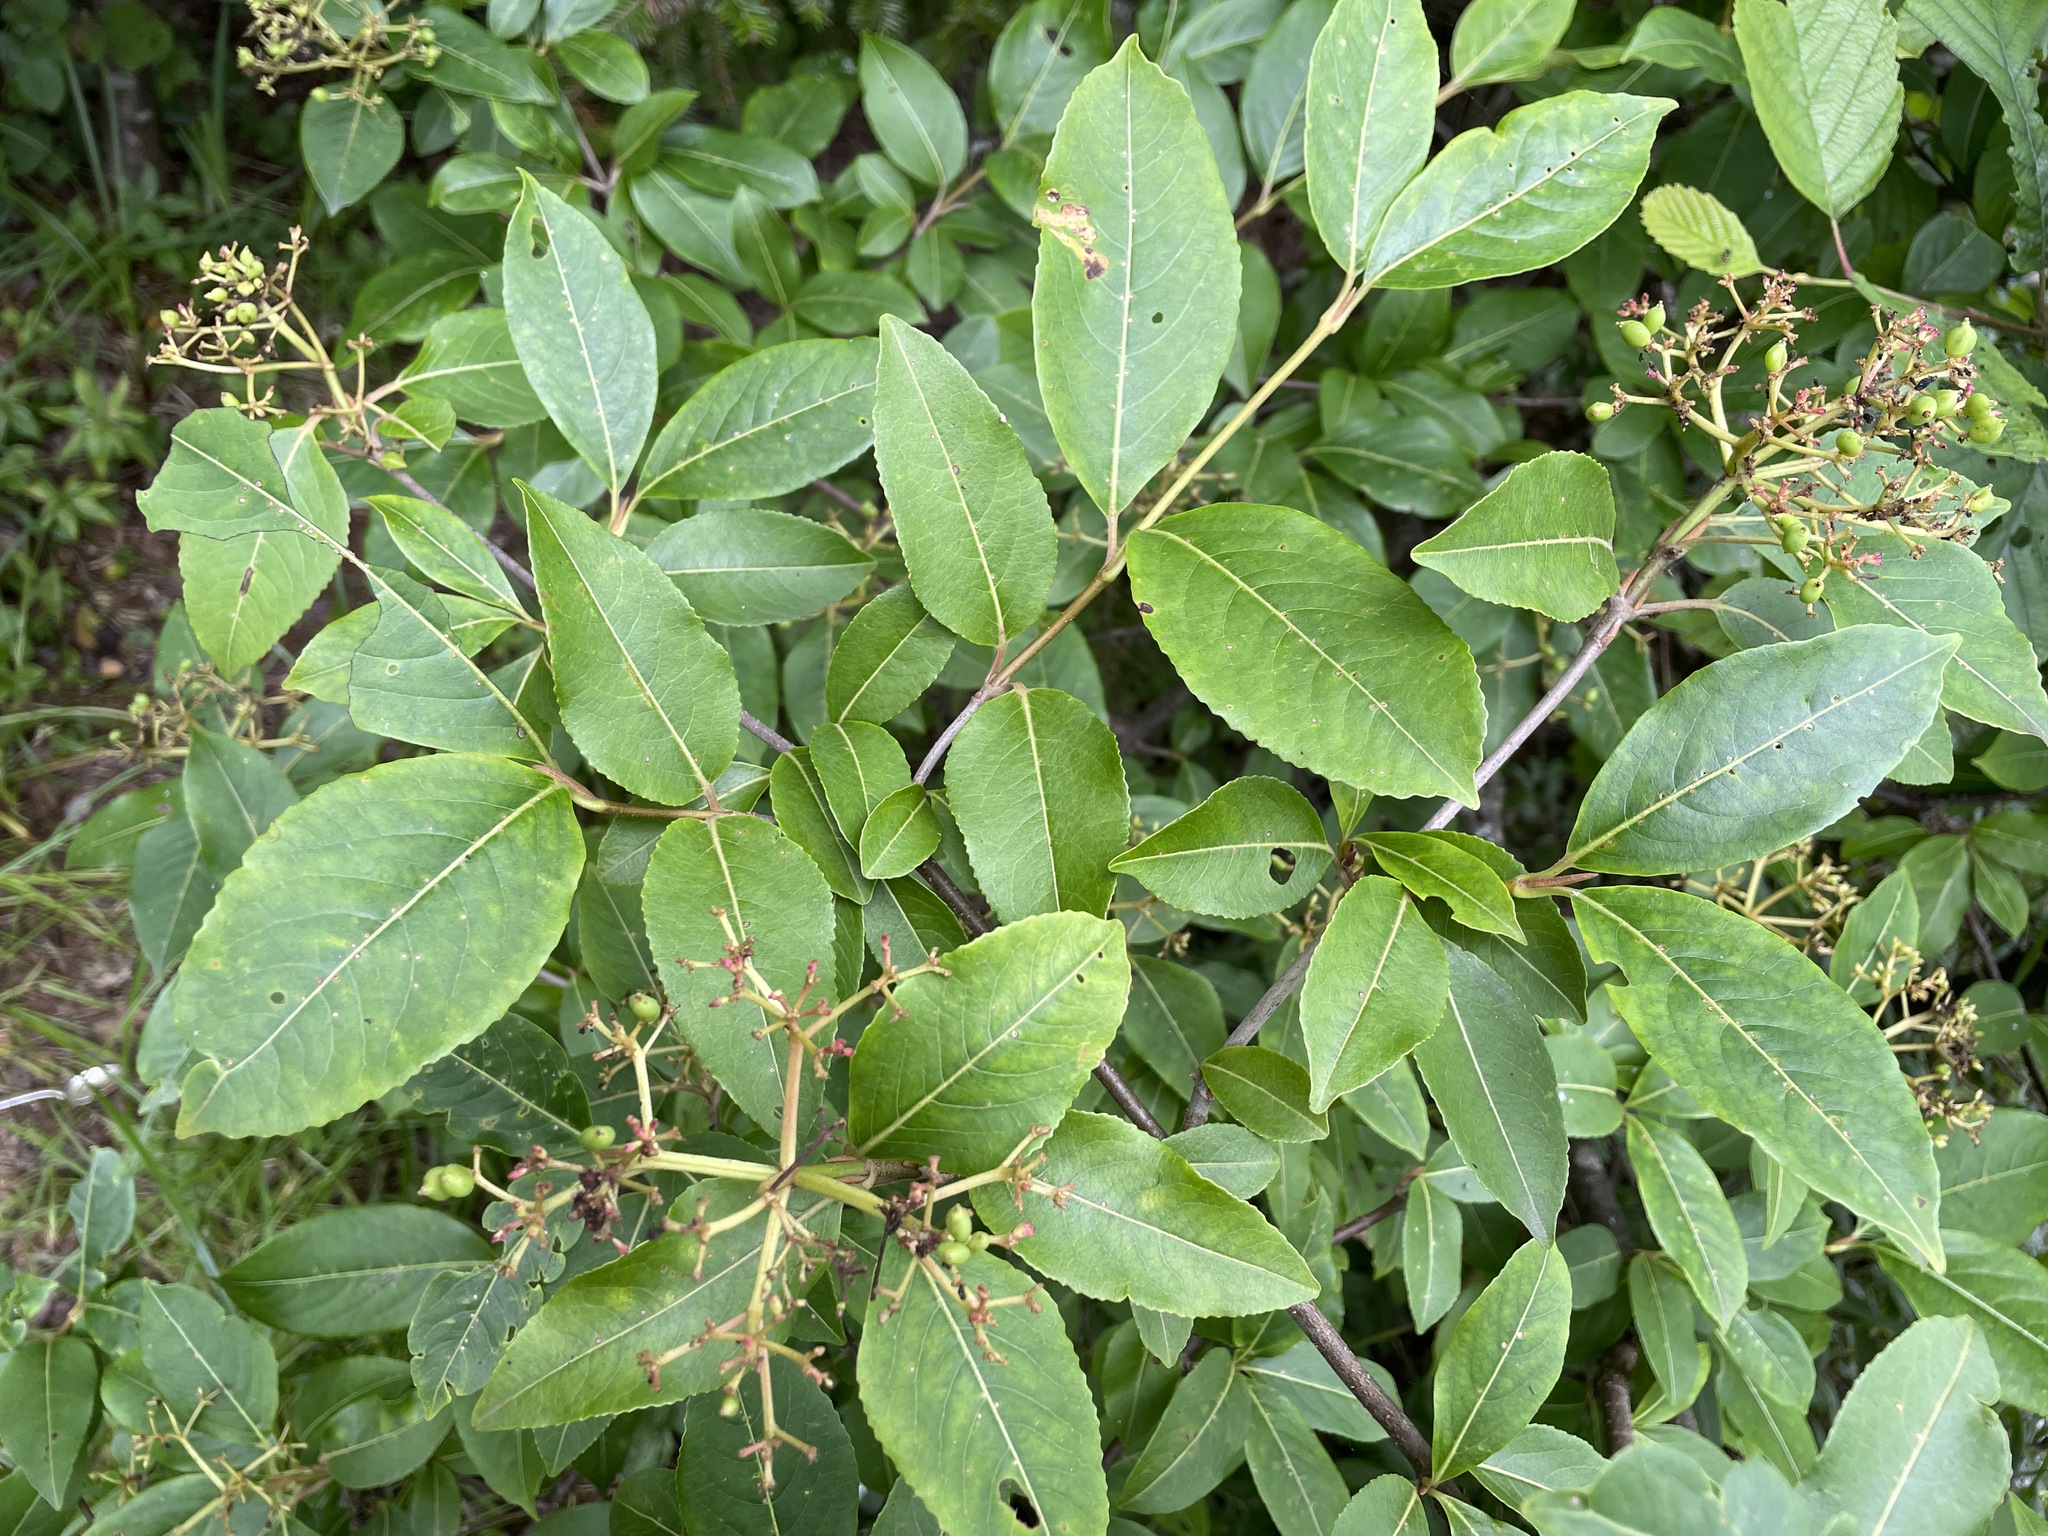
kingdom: Plantae
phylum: Tracheophyta
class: Magnoliopsida
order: Dipsacales
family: Viburnaceae
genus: Viburnum
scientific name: Viburnum cassinoides
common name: Swamp haw
